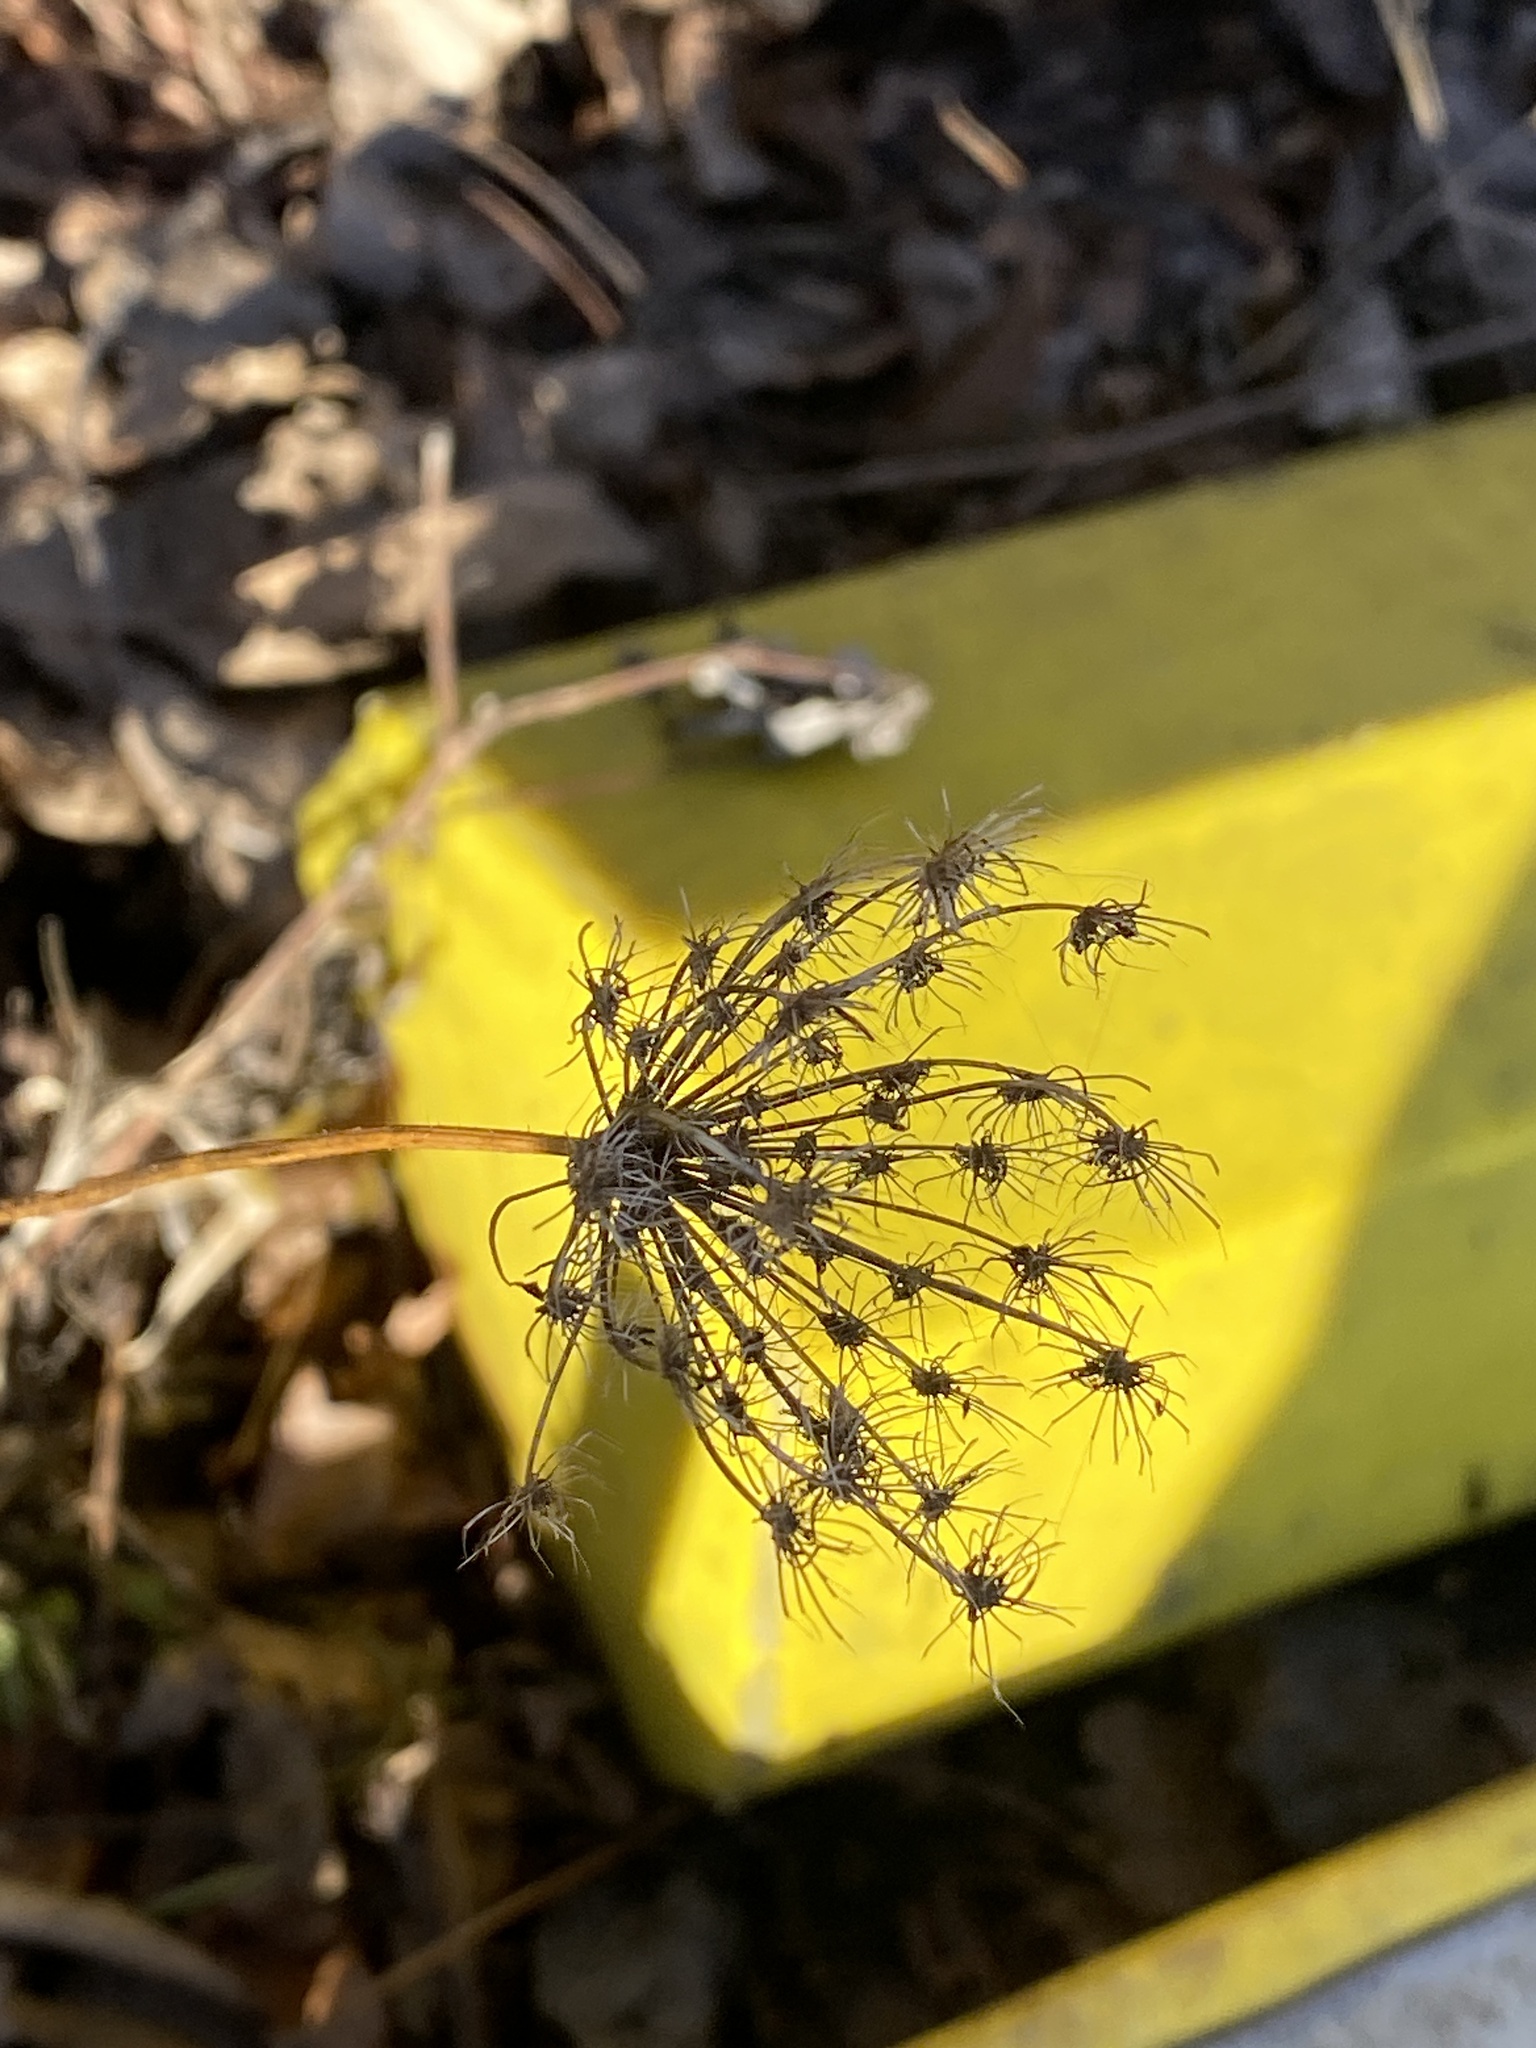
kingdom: Plantae
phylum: Tracheophyta
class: Magnoliopsida
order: Apiales
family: Apiaceae
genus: Daucus
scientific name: Daucus carota
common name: Wild carrot
